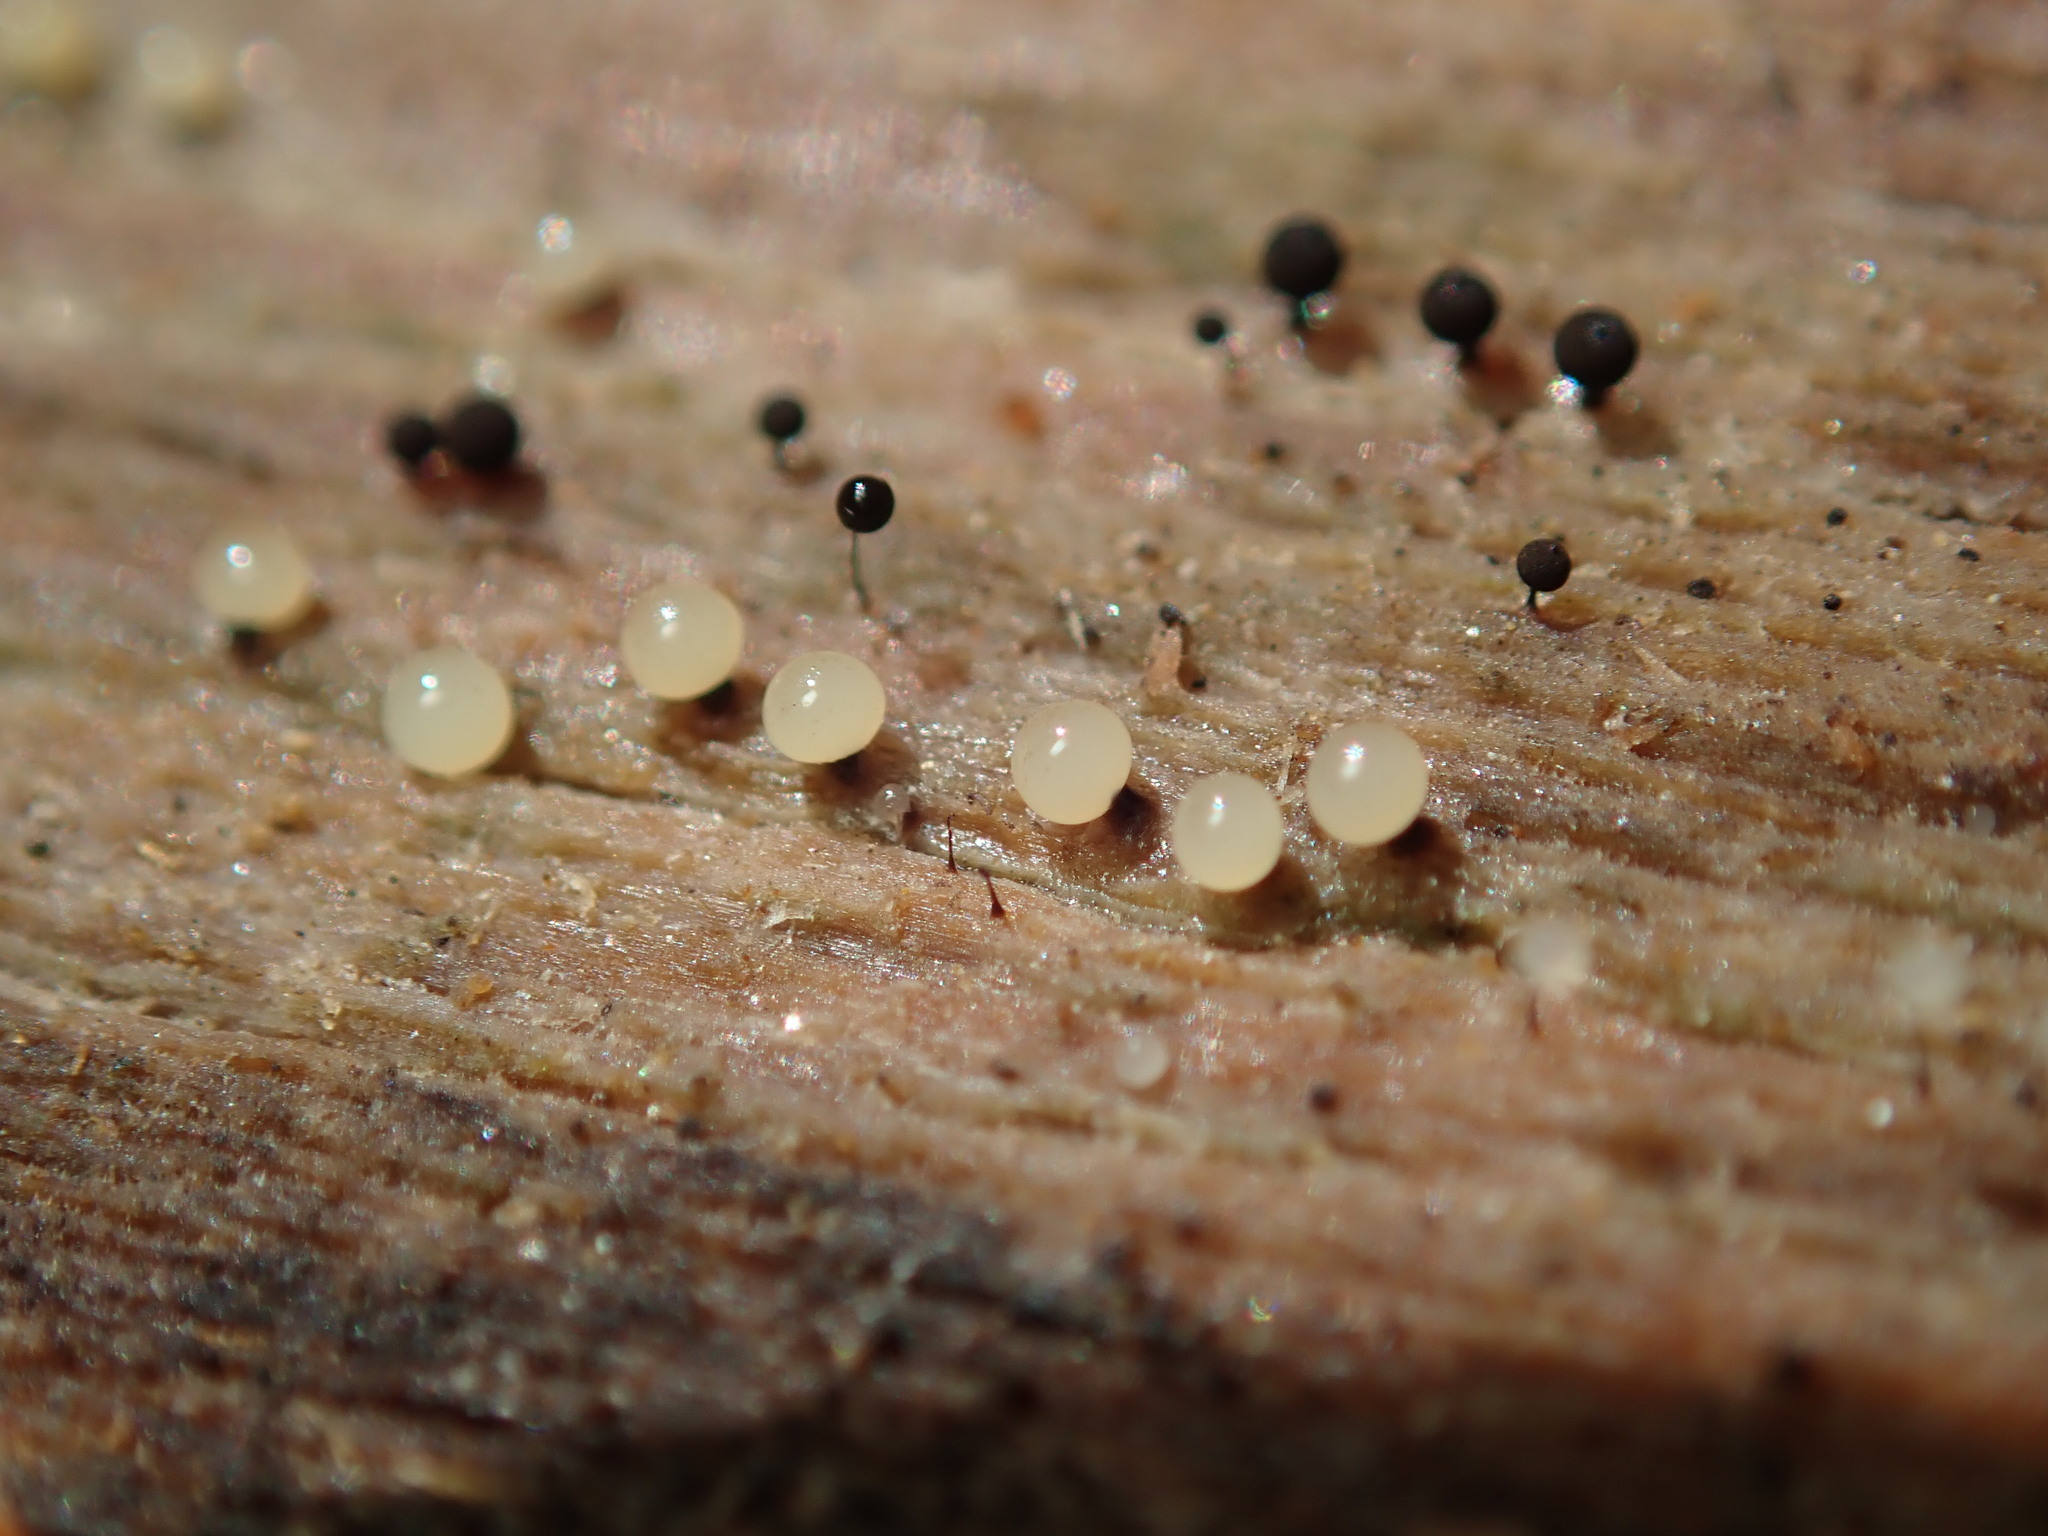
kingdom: Protozoa
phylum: Mycetozoa
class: Myxomycetes
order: Stemonitidales
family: Stemonitidaceae
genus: Enerthenema
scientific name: Enerthenema papillatum
